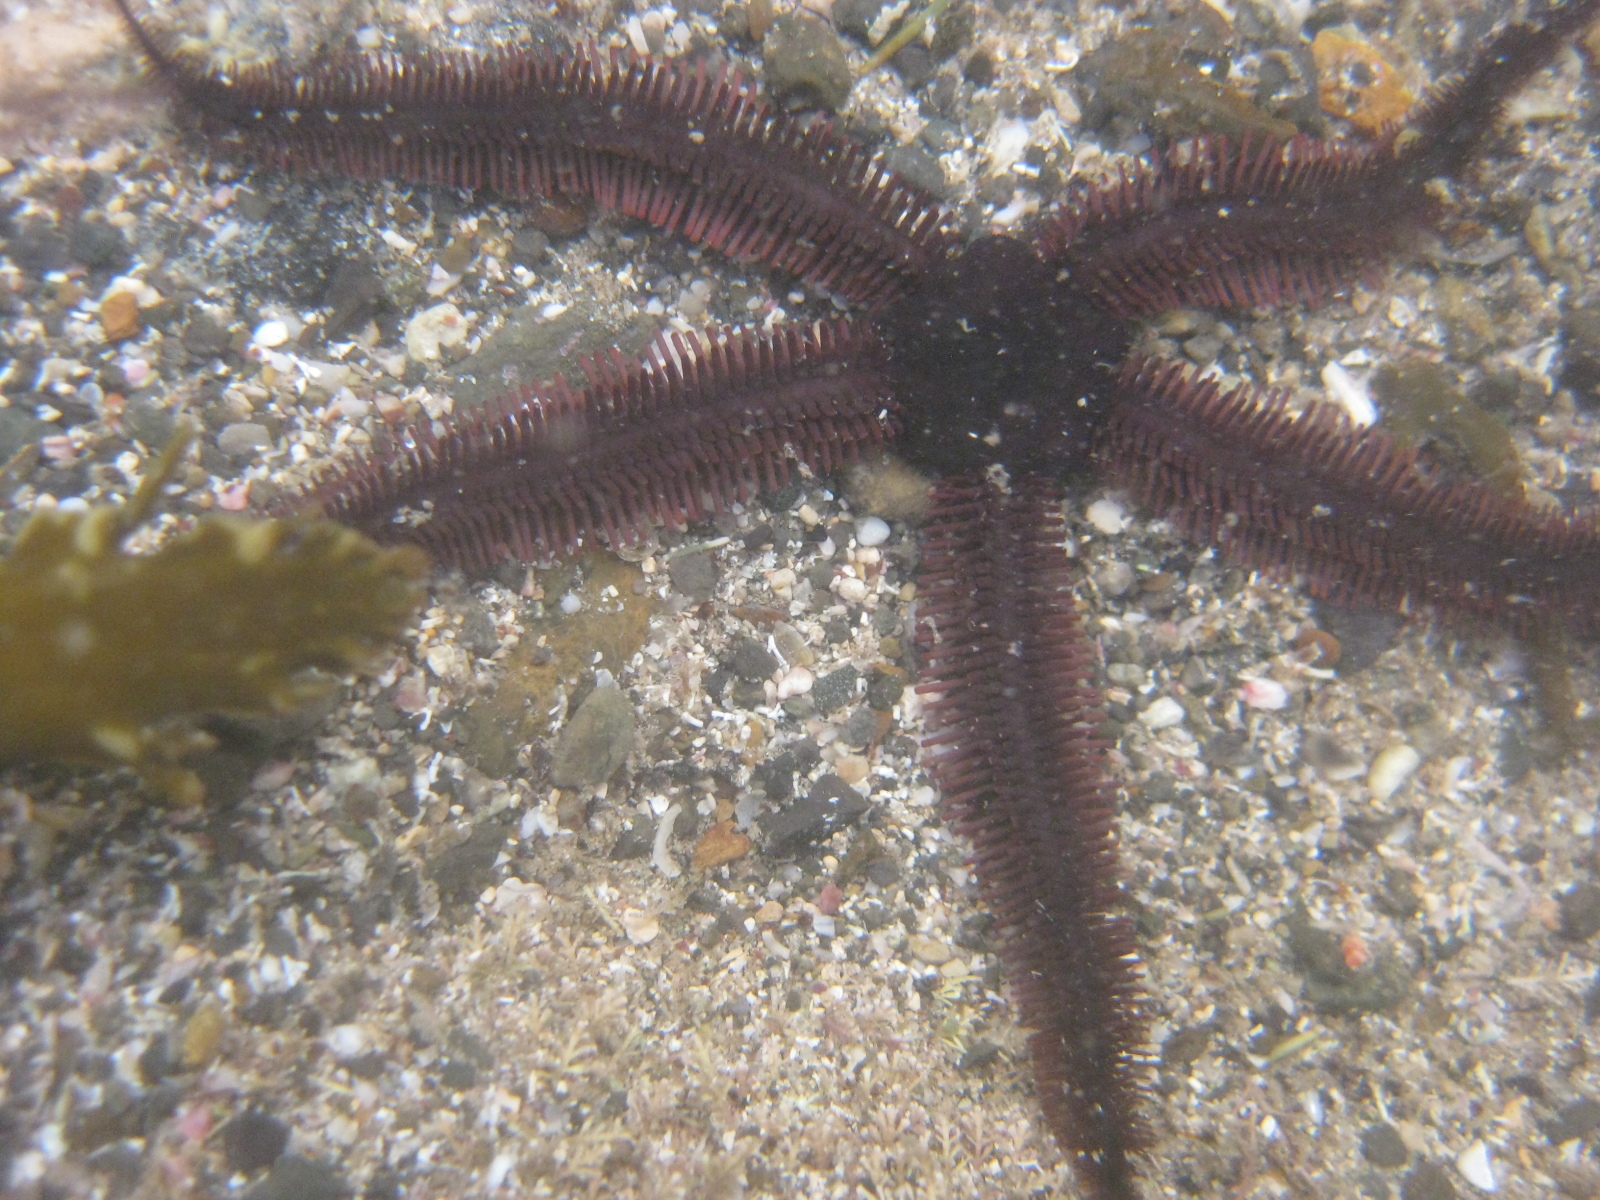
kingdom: Animalia
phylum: Echinodermata
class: Ophiuroidea
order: Ophiacanthida
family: Ophiopteridae
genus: Ophiopteris
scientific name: Ophiopteris antipodum
